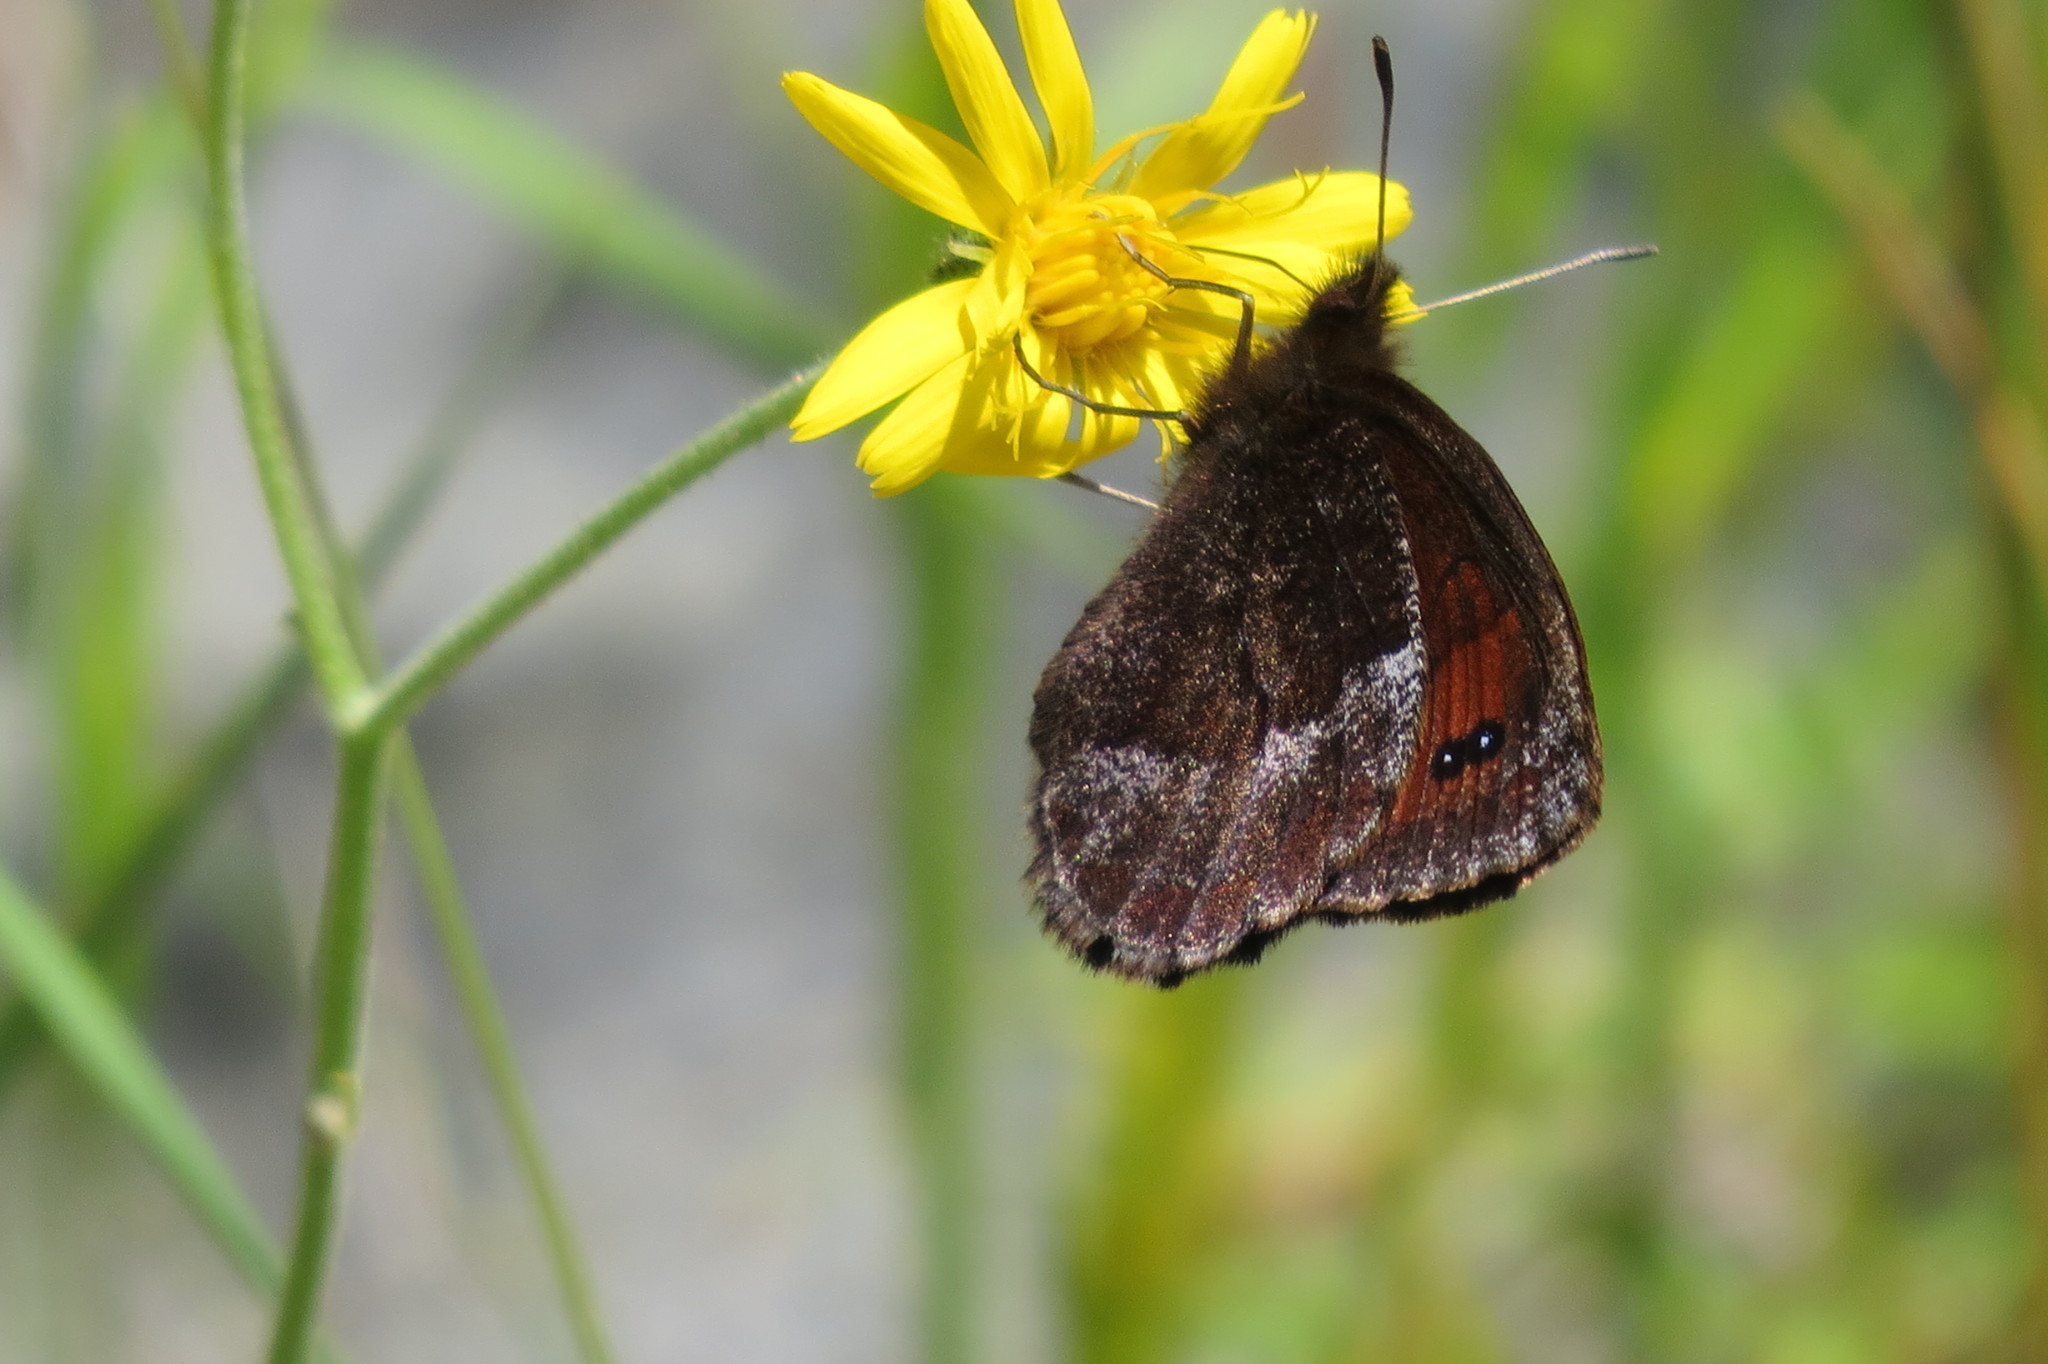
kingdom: Animalia
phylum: Arthropoda
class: Insecta
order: Lepidoptera
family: Nymphalidae
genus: Erebia
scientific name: Erebia pronoe
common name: Water ringlet
